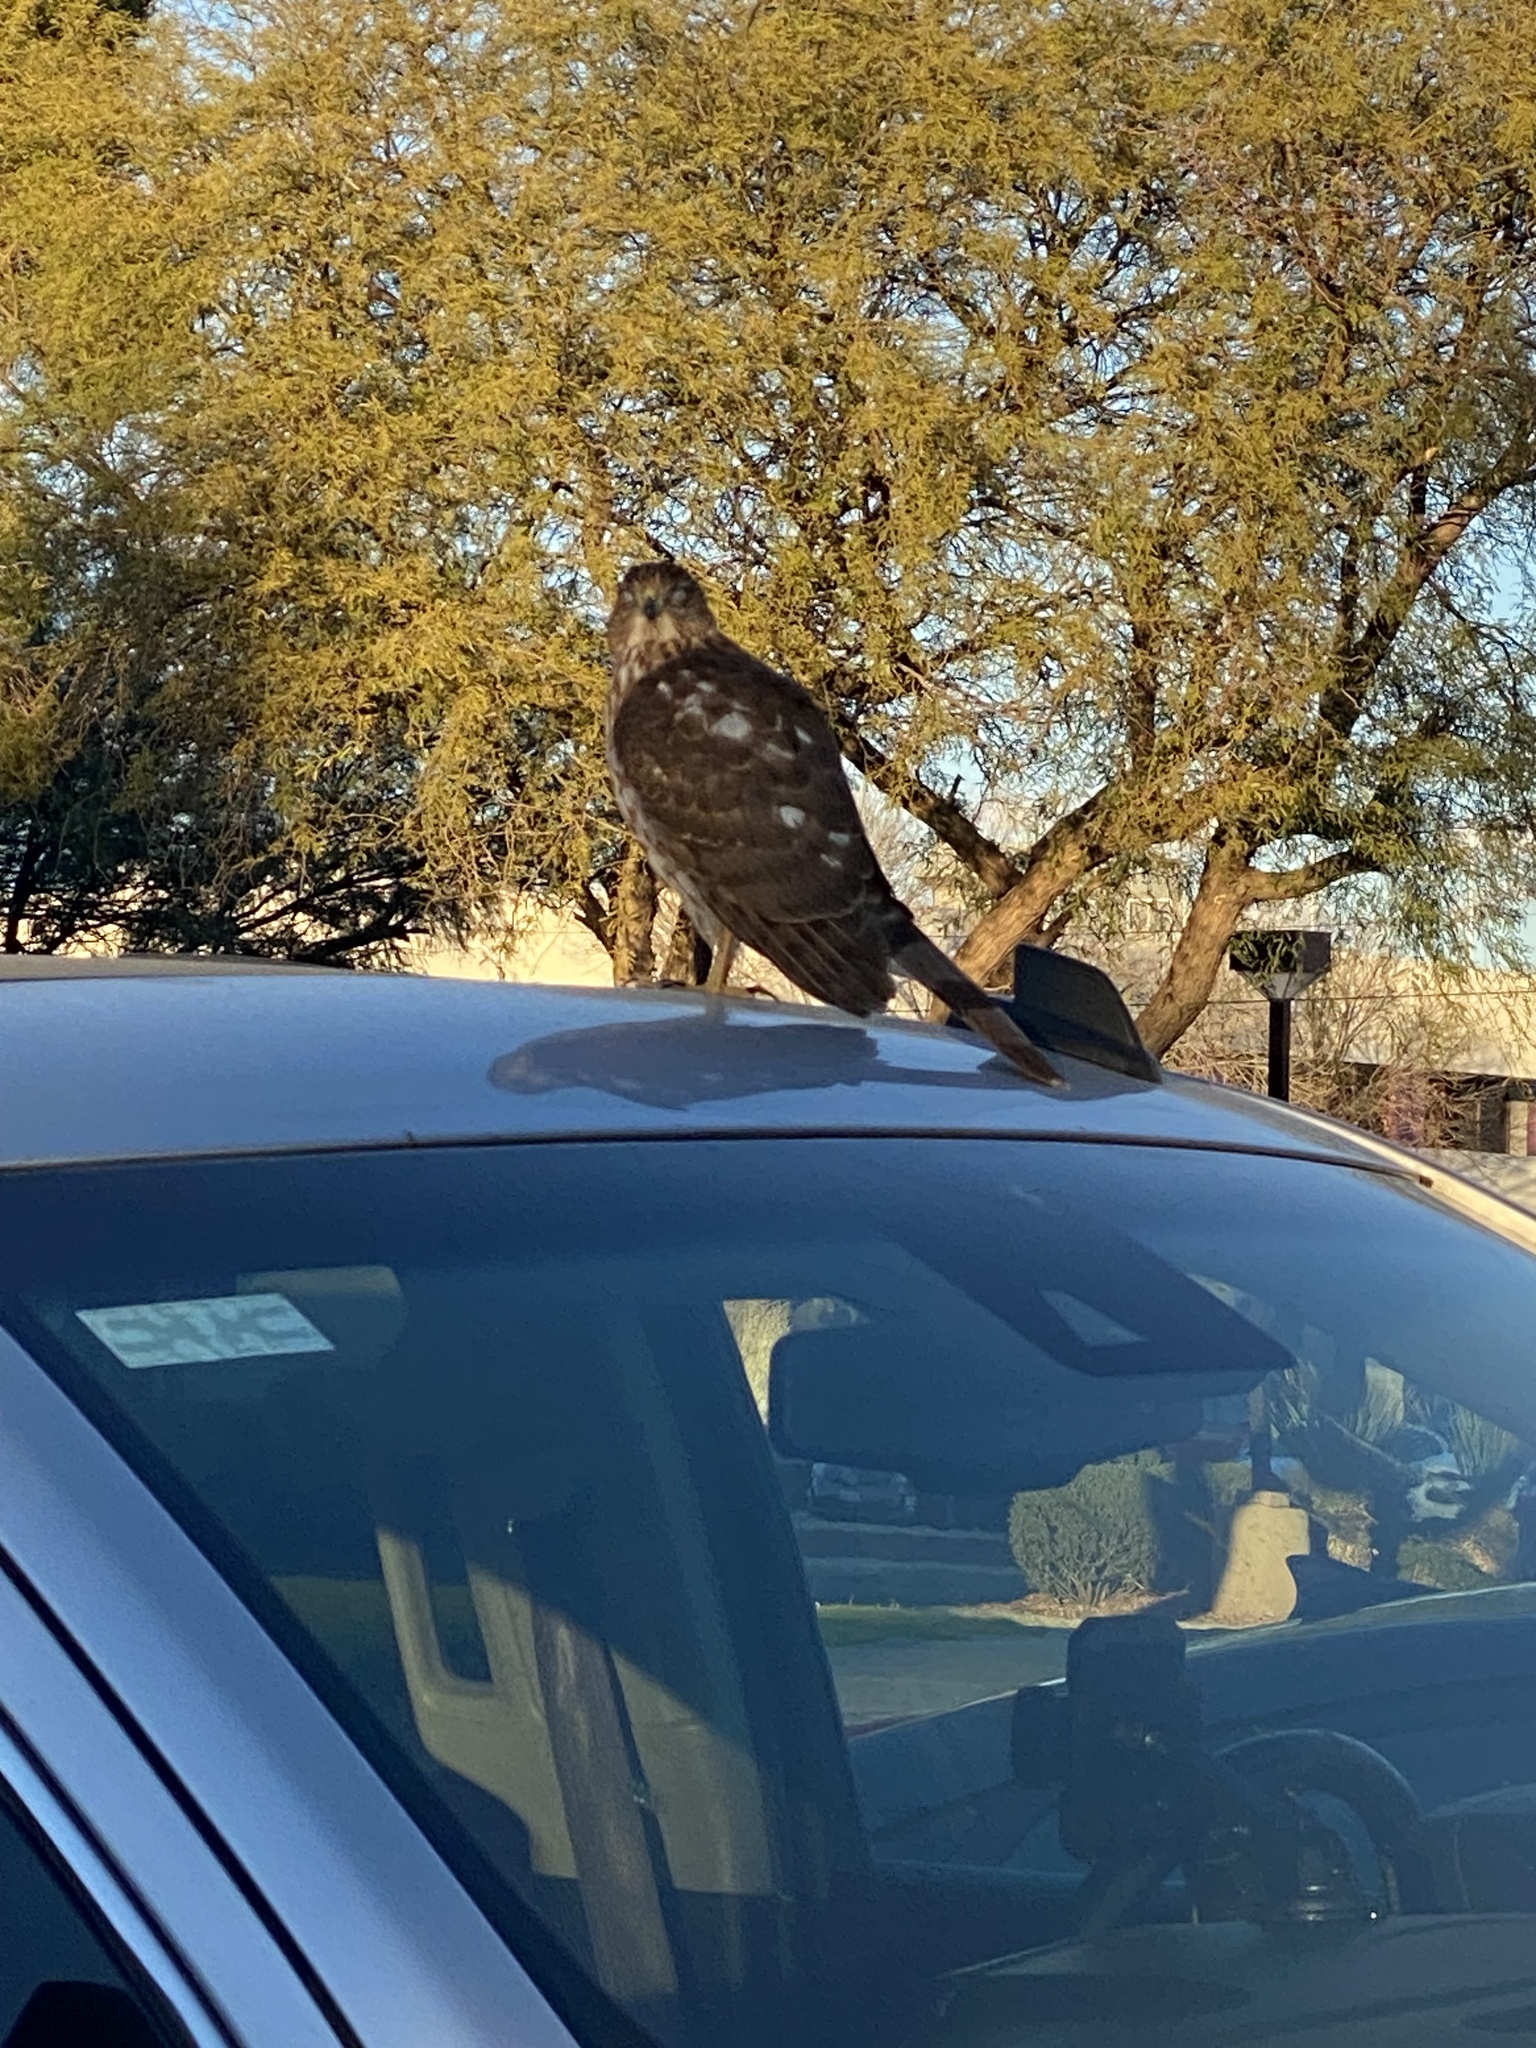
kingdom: Animalia
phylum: Chordata
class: Aves
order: Accipitriformes
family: Accipitridae
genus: Accipiter
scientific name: Accipiter cooperii
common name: Cooper's hawk
